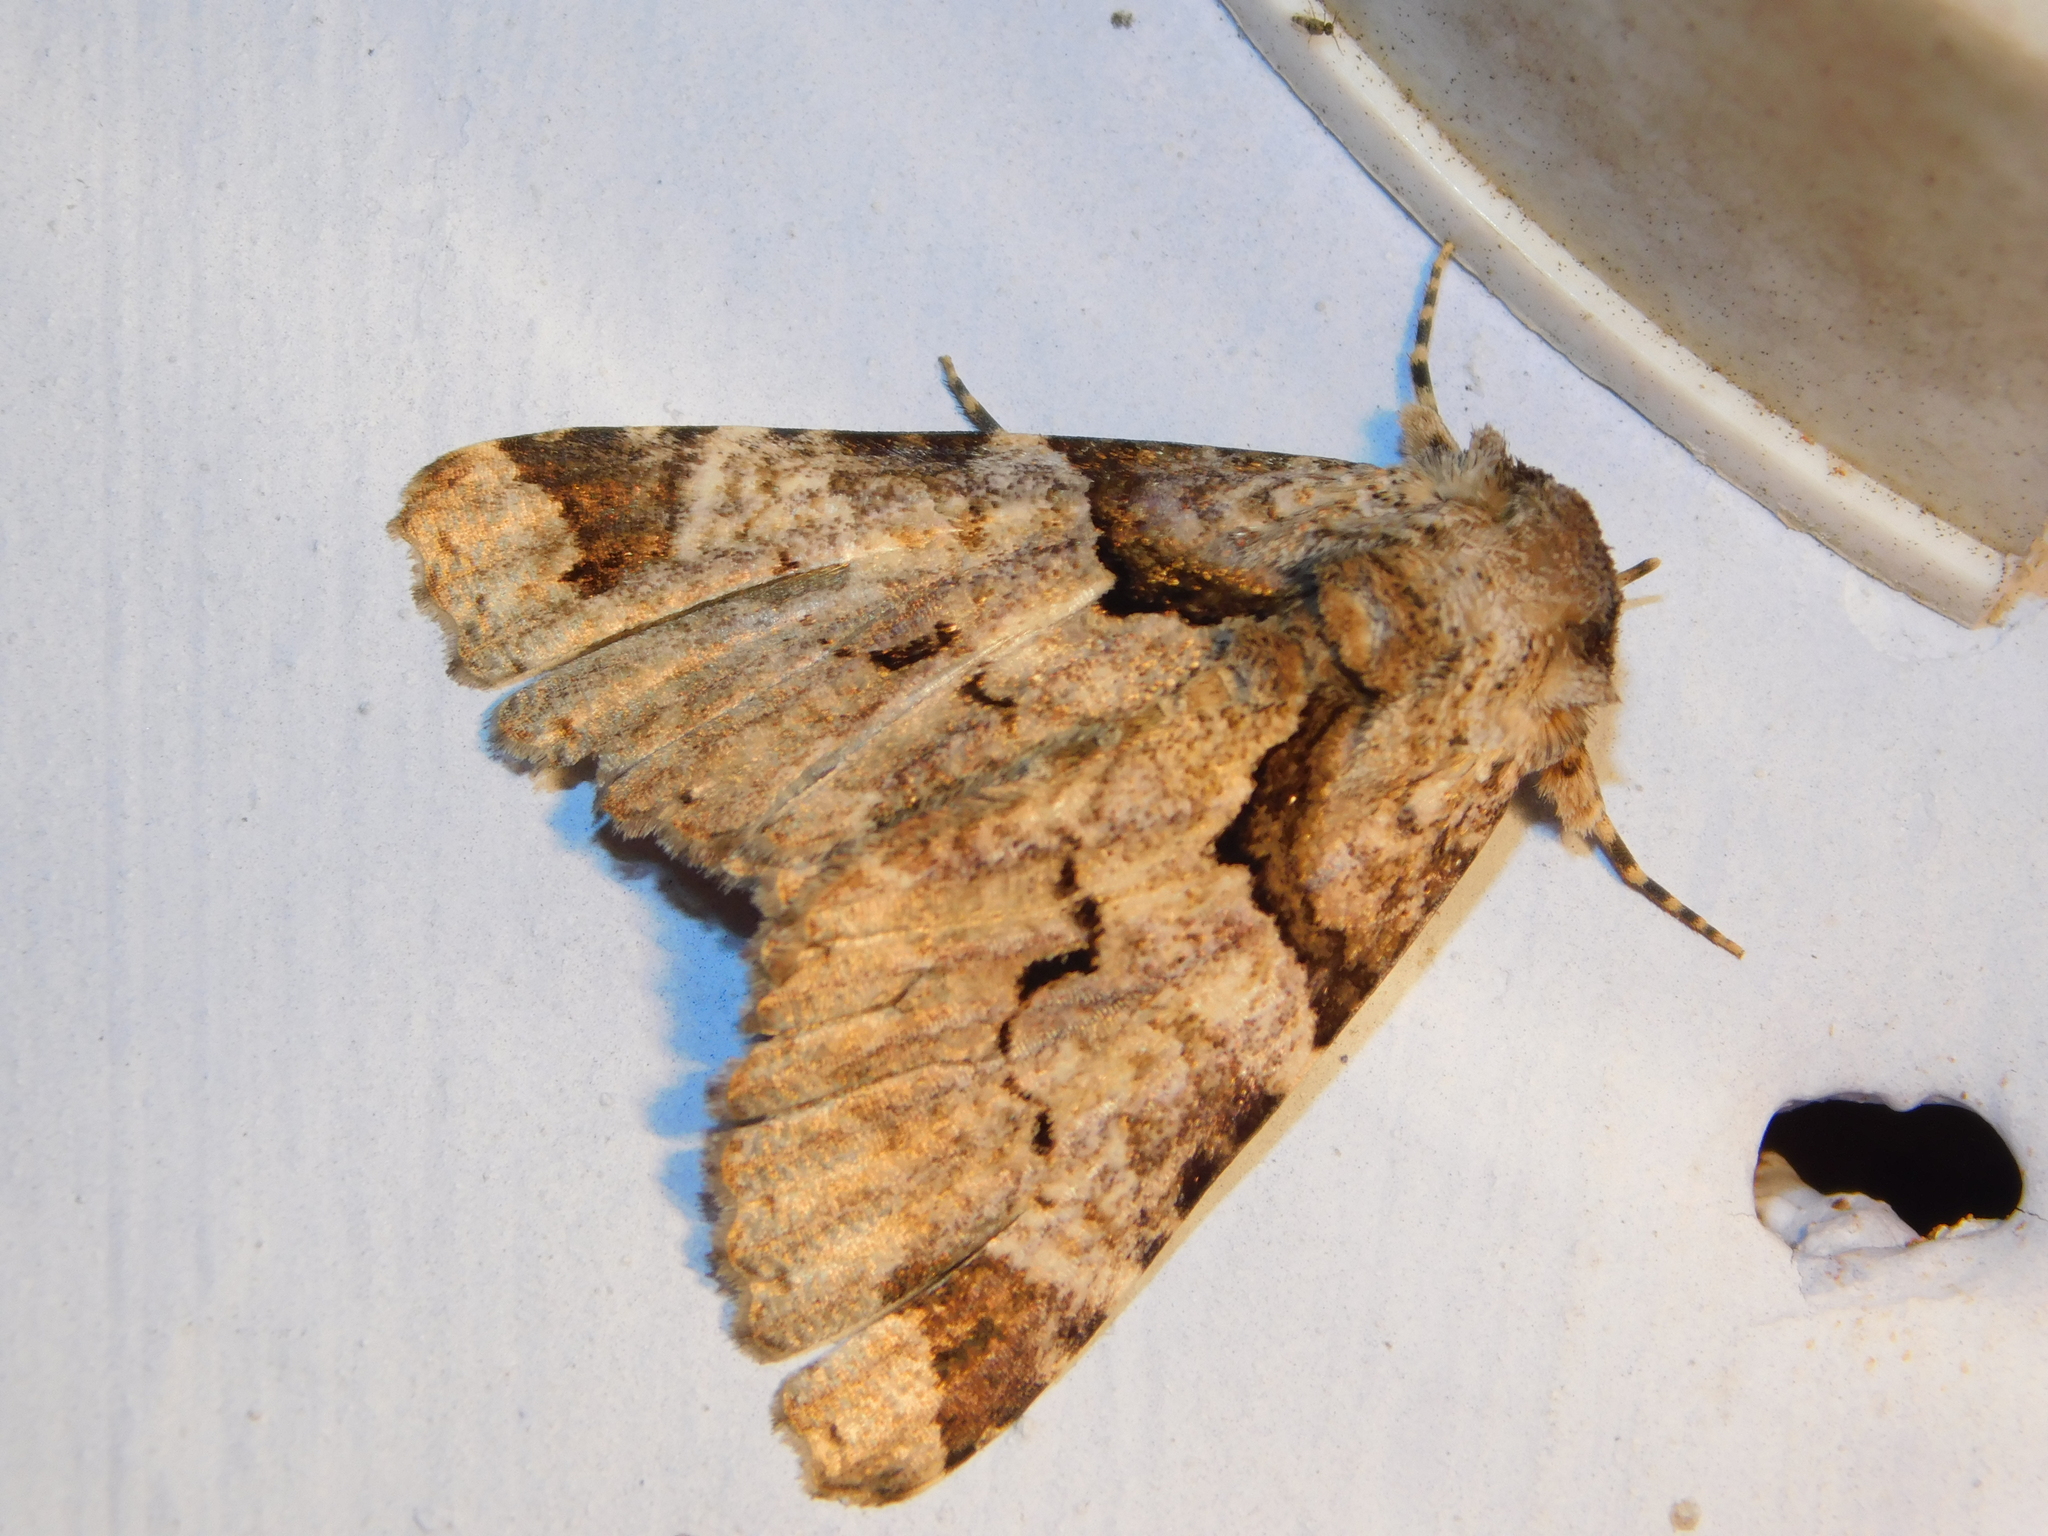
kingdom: Animalia
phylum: Arthropoda
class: Insecta
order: Lepidoptera
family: Erebidae
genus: Erygia
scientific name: Erygia spissa
